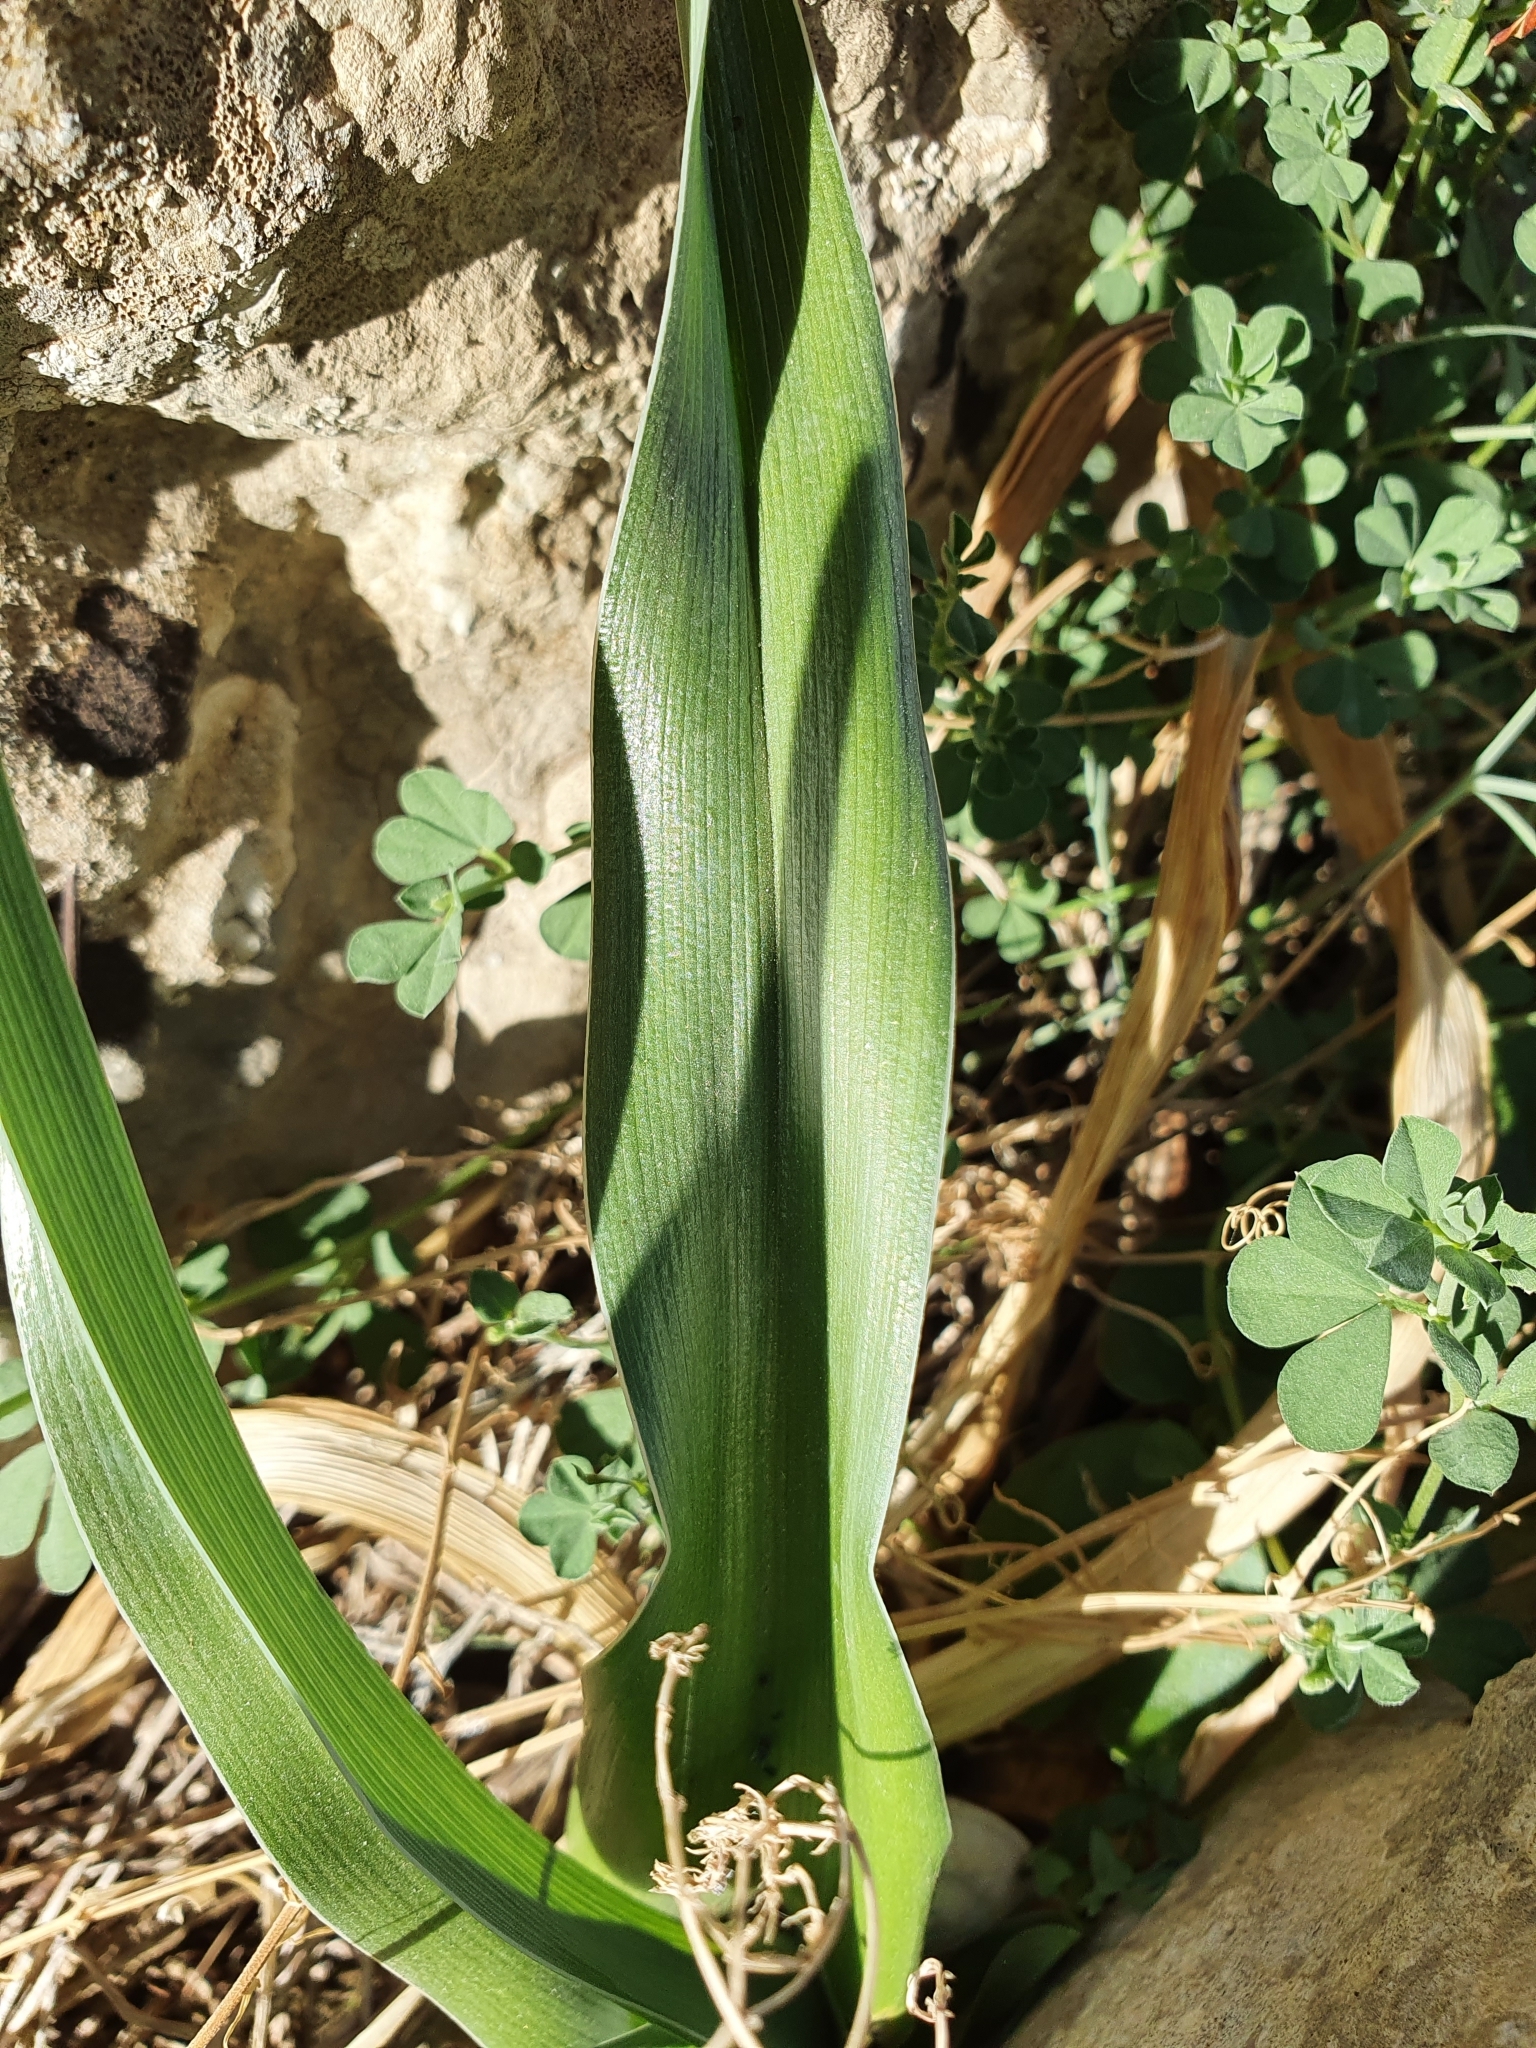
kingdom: Plantae
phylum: Tracheophyta
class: Liliopsida
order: Asparagales
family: Iridaceae
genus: Iris
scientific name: Iris planifolia
